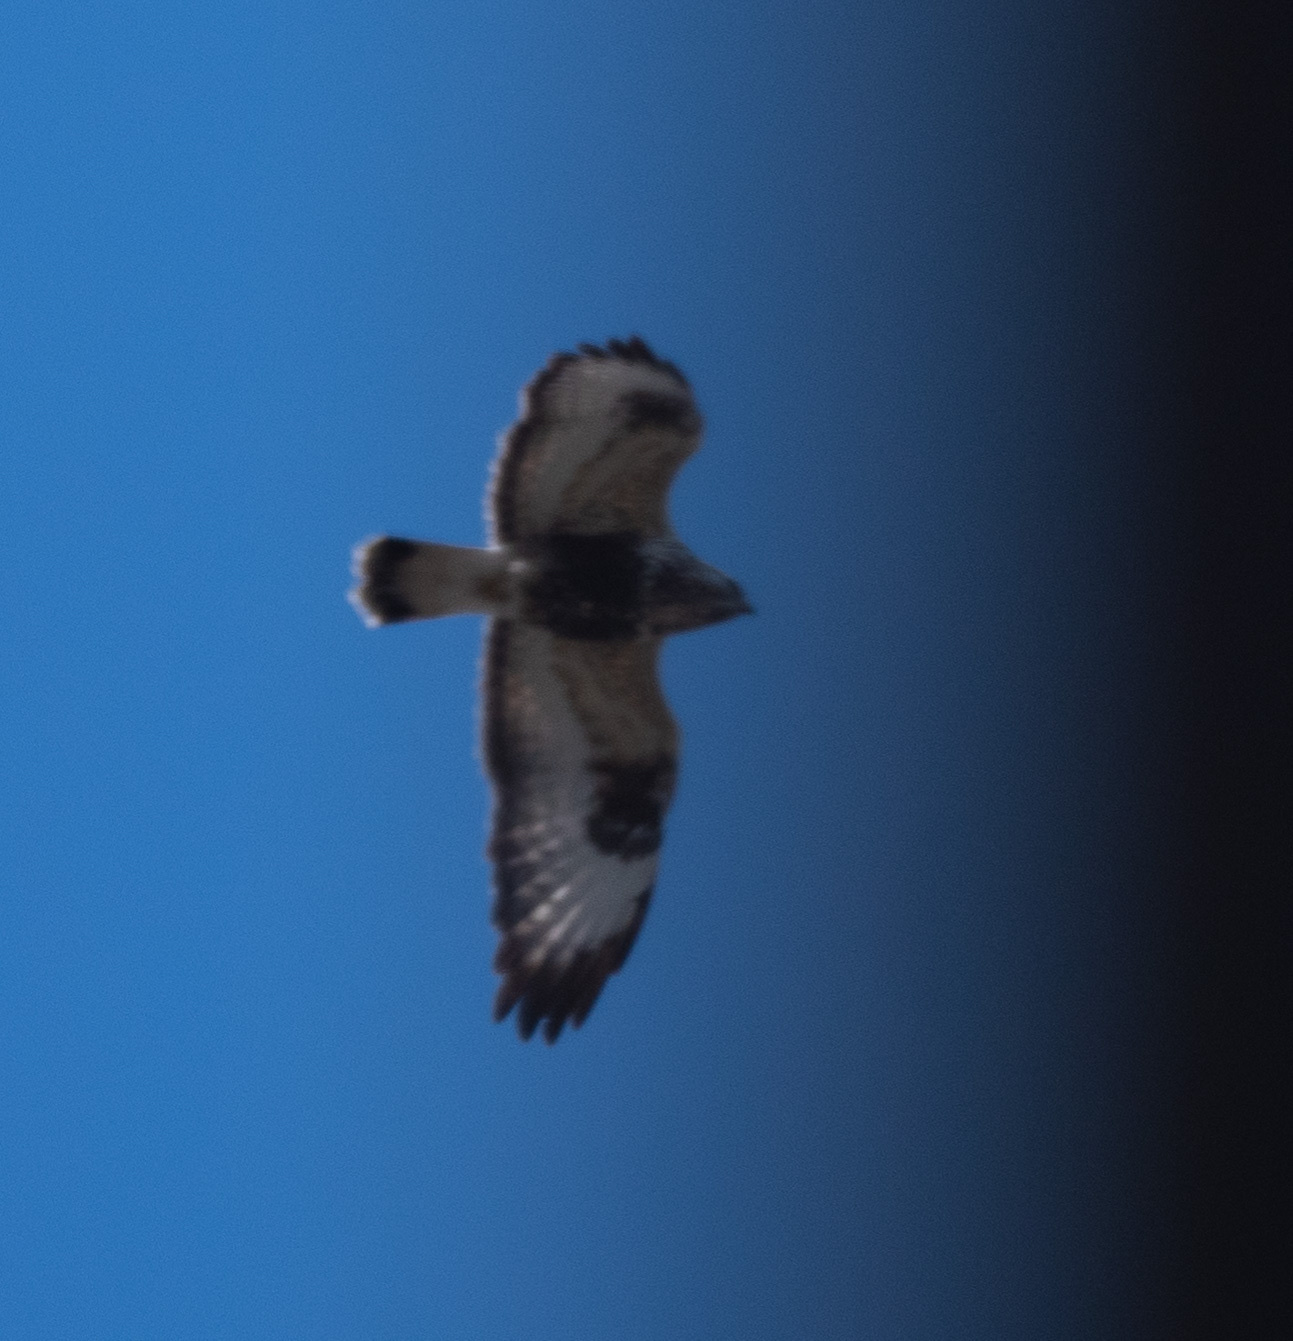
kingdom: Animalia
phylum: Chordata
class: Aves
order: Accipitriformes
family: Accipitridae
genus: Buteo
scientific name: Buteo lagopus
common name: Rough-legged buzzard
